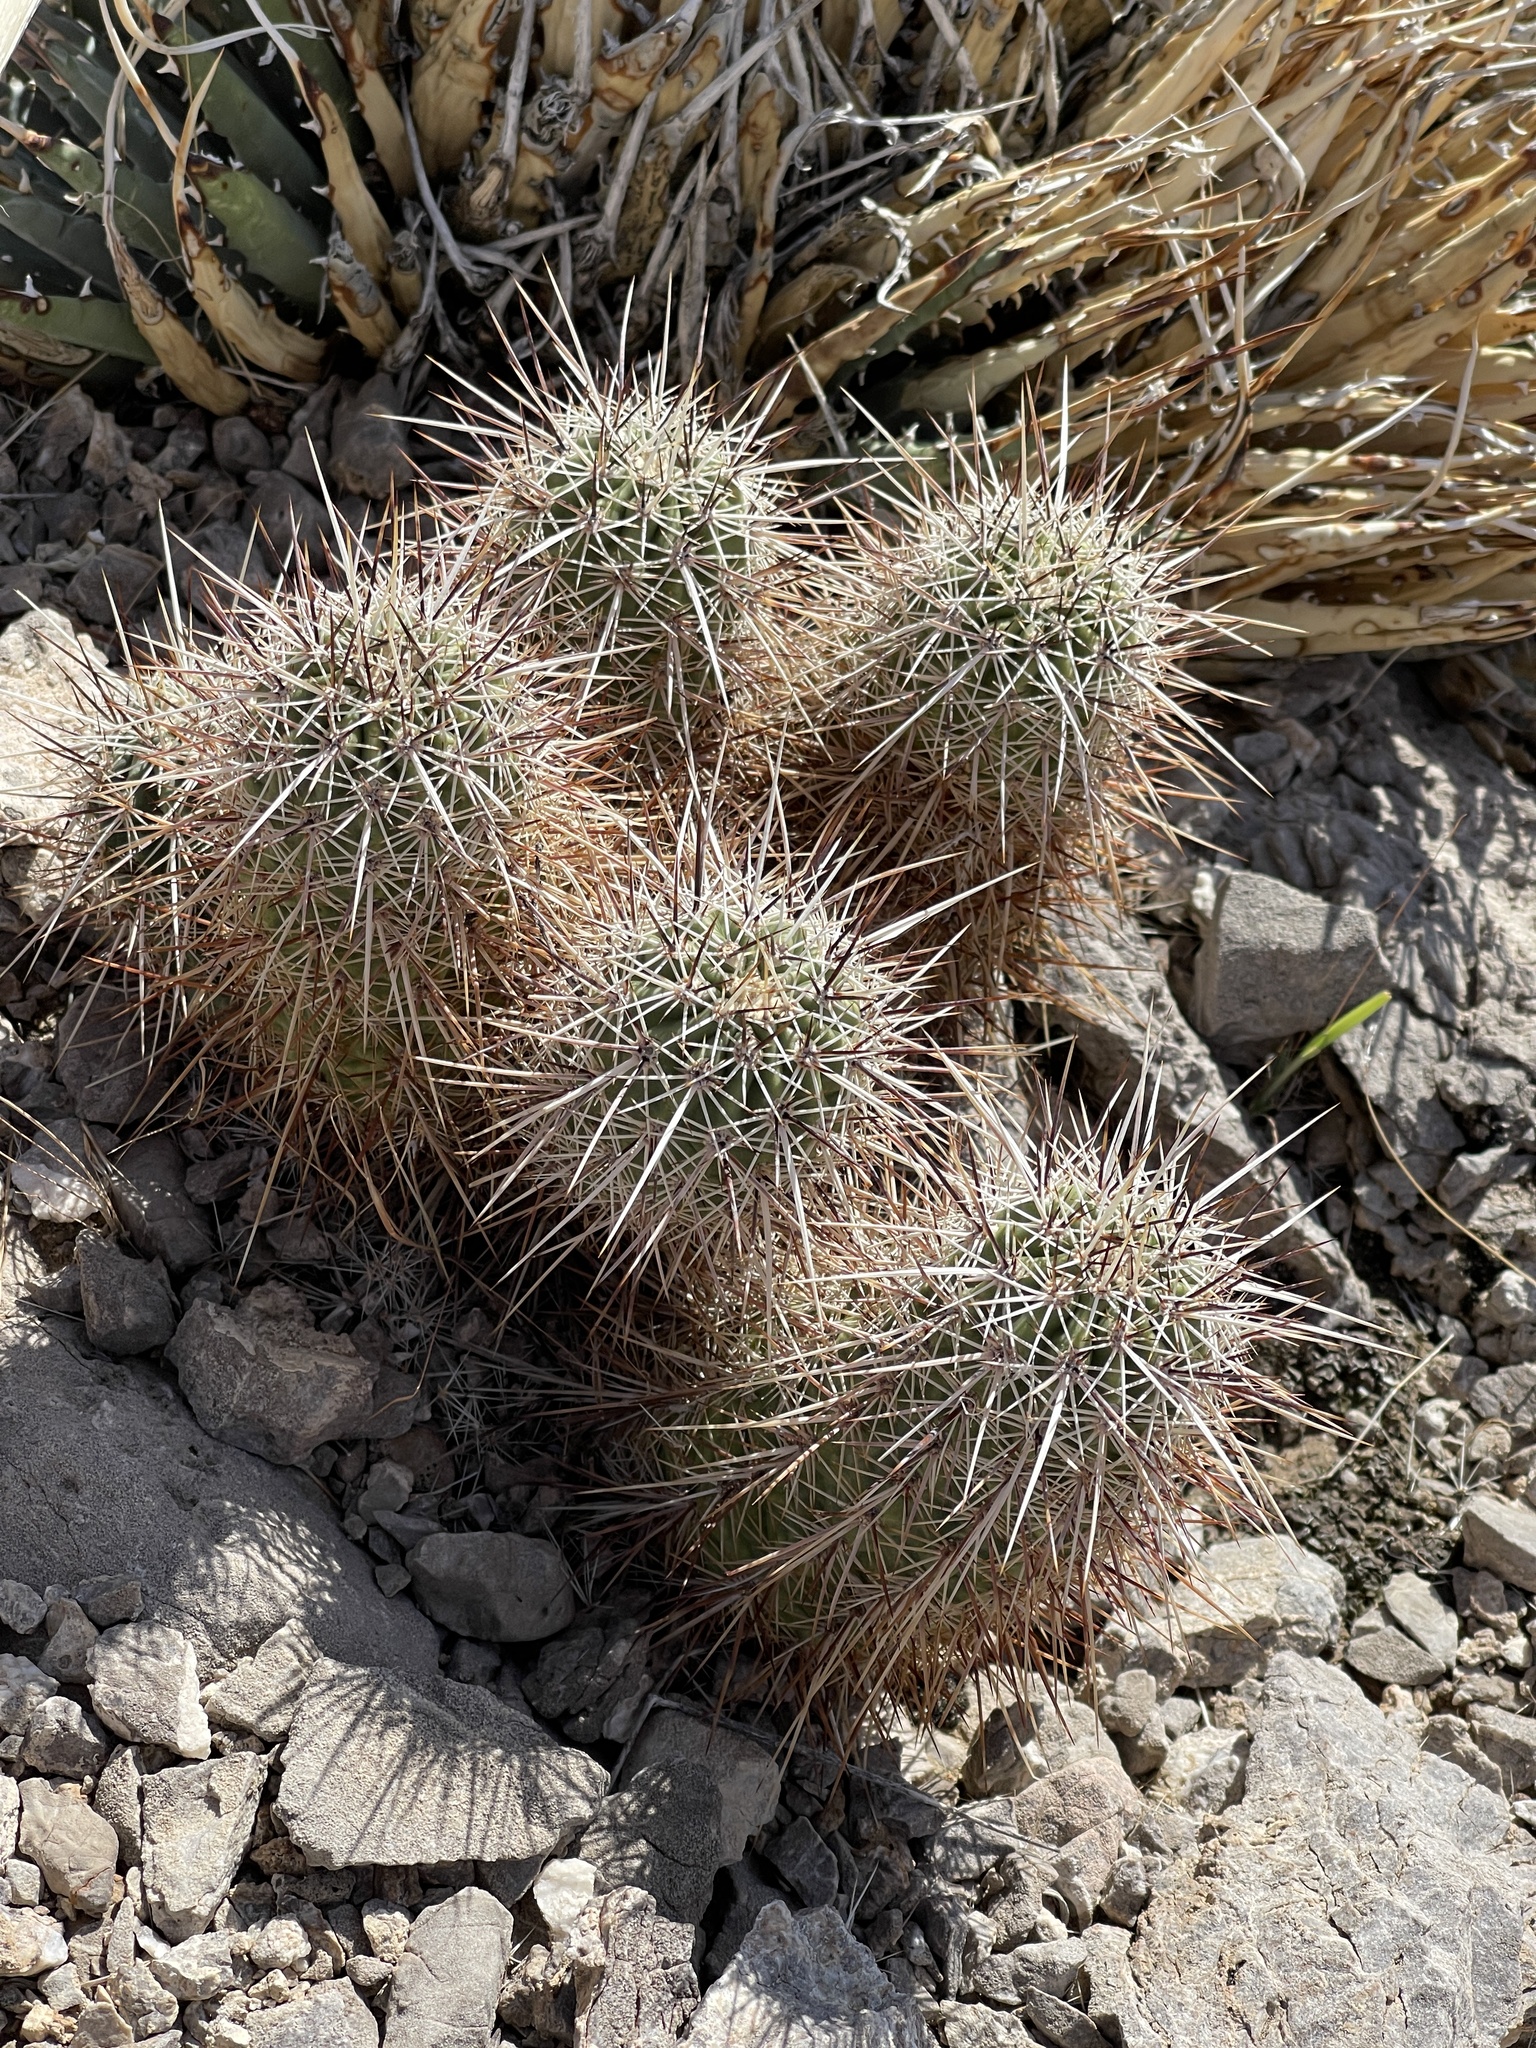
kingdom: Plantae
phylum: Tracheophyta
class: Magnoliopsida
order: Caryophyllales
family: Cactaceae
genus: Echinocereus
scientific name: Echinocereus engelmannii
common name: Engelmann's hedgehog cactus
